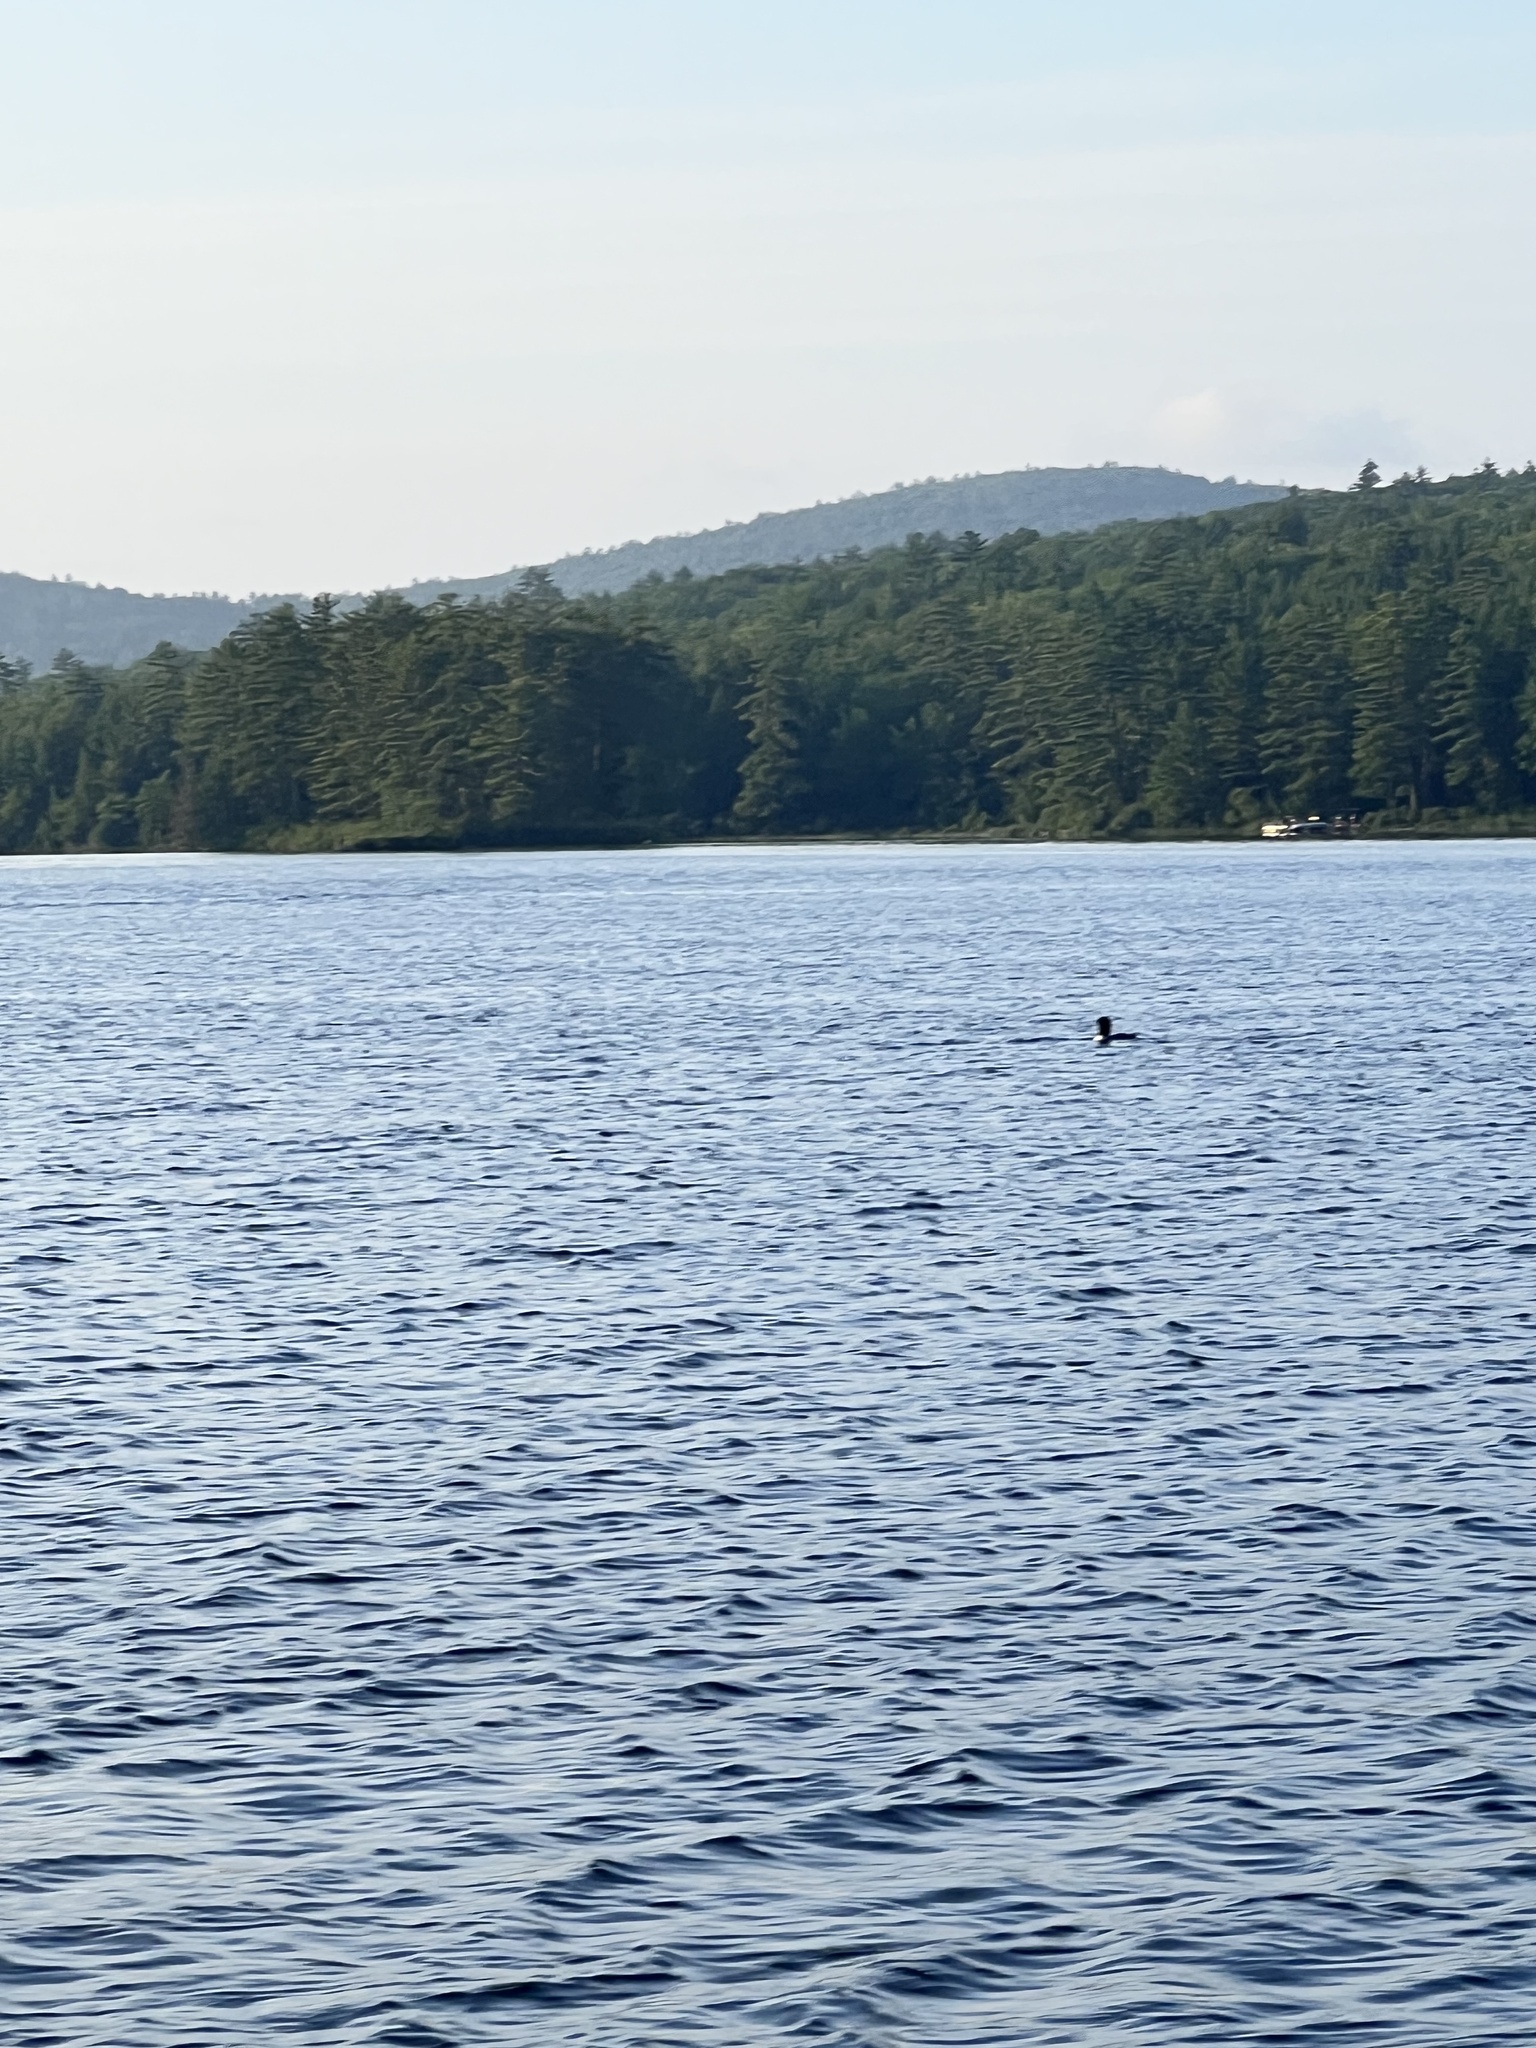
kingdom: Animalia
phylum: Chordata
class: Aves
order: Gaviiformes
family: Gaviidae
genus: Gavia
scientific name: Gavia immer
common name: Common loon
